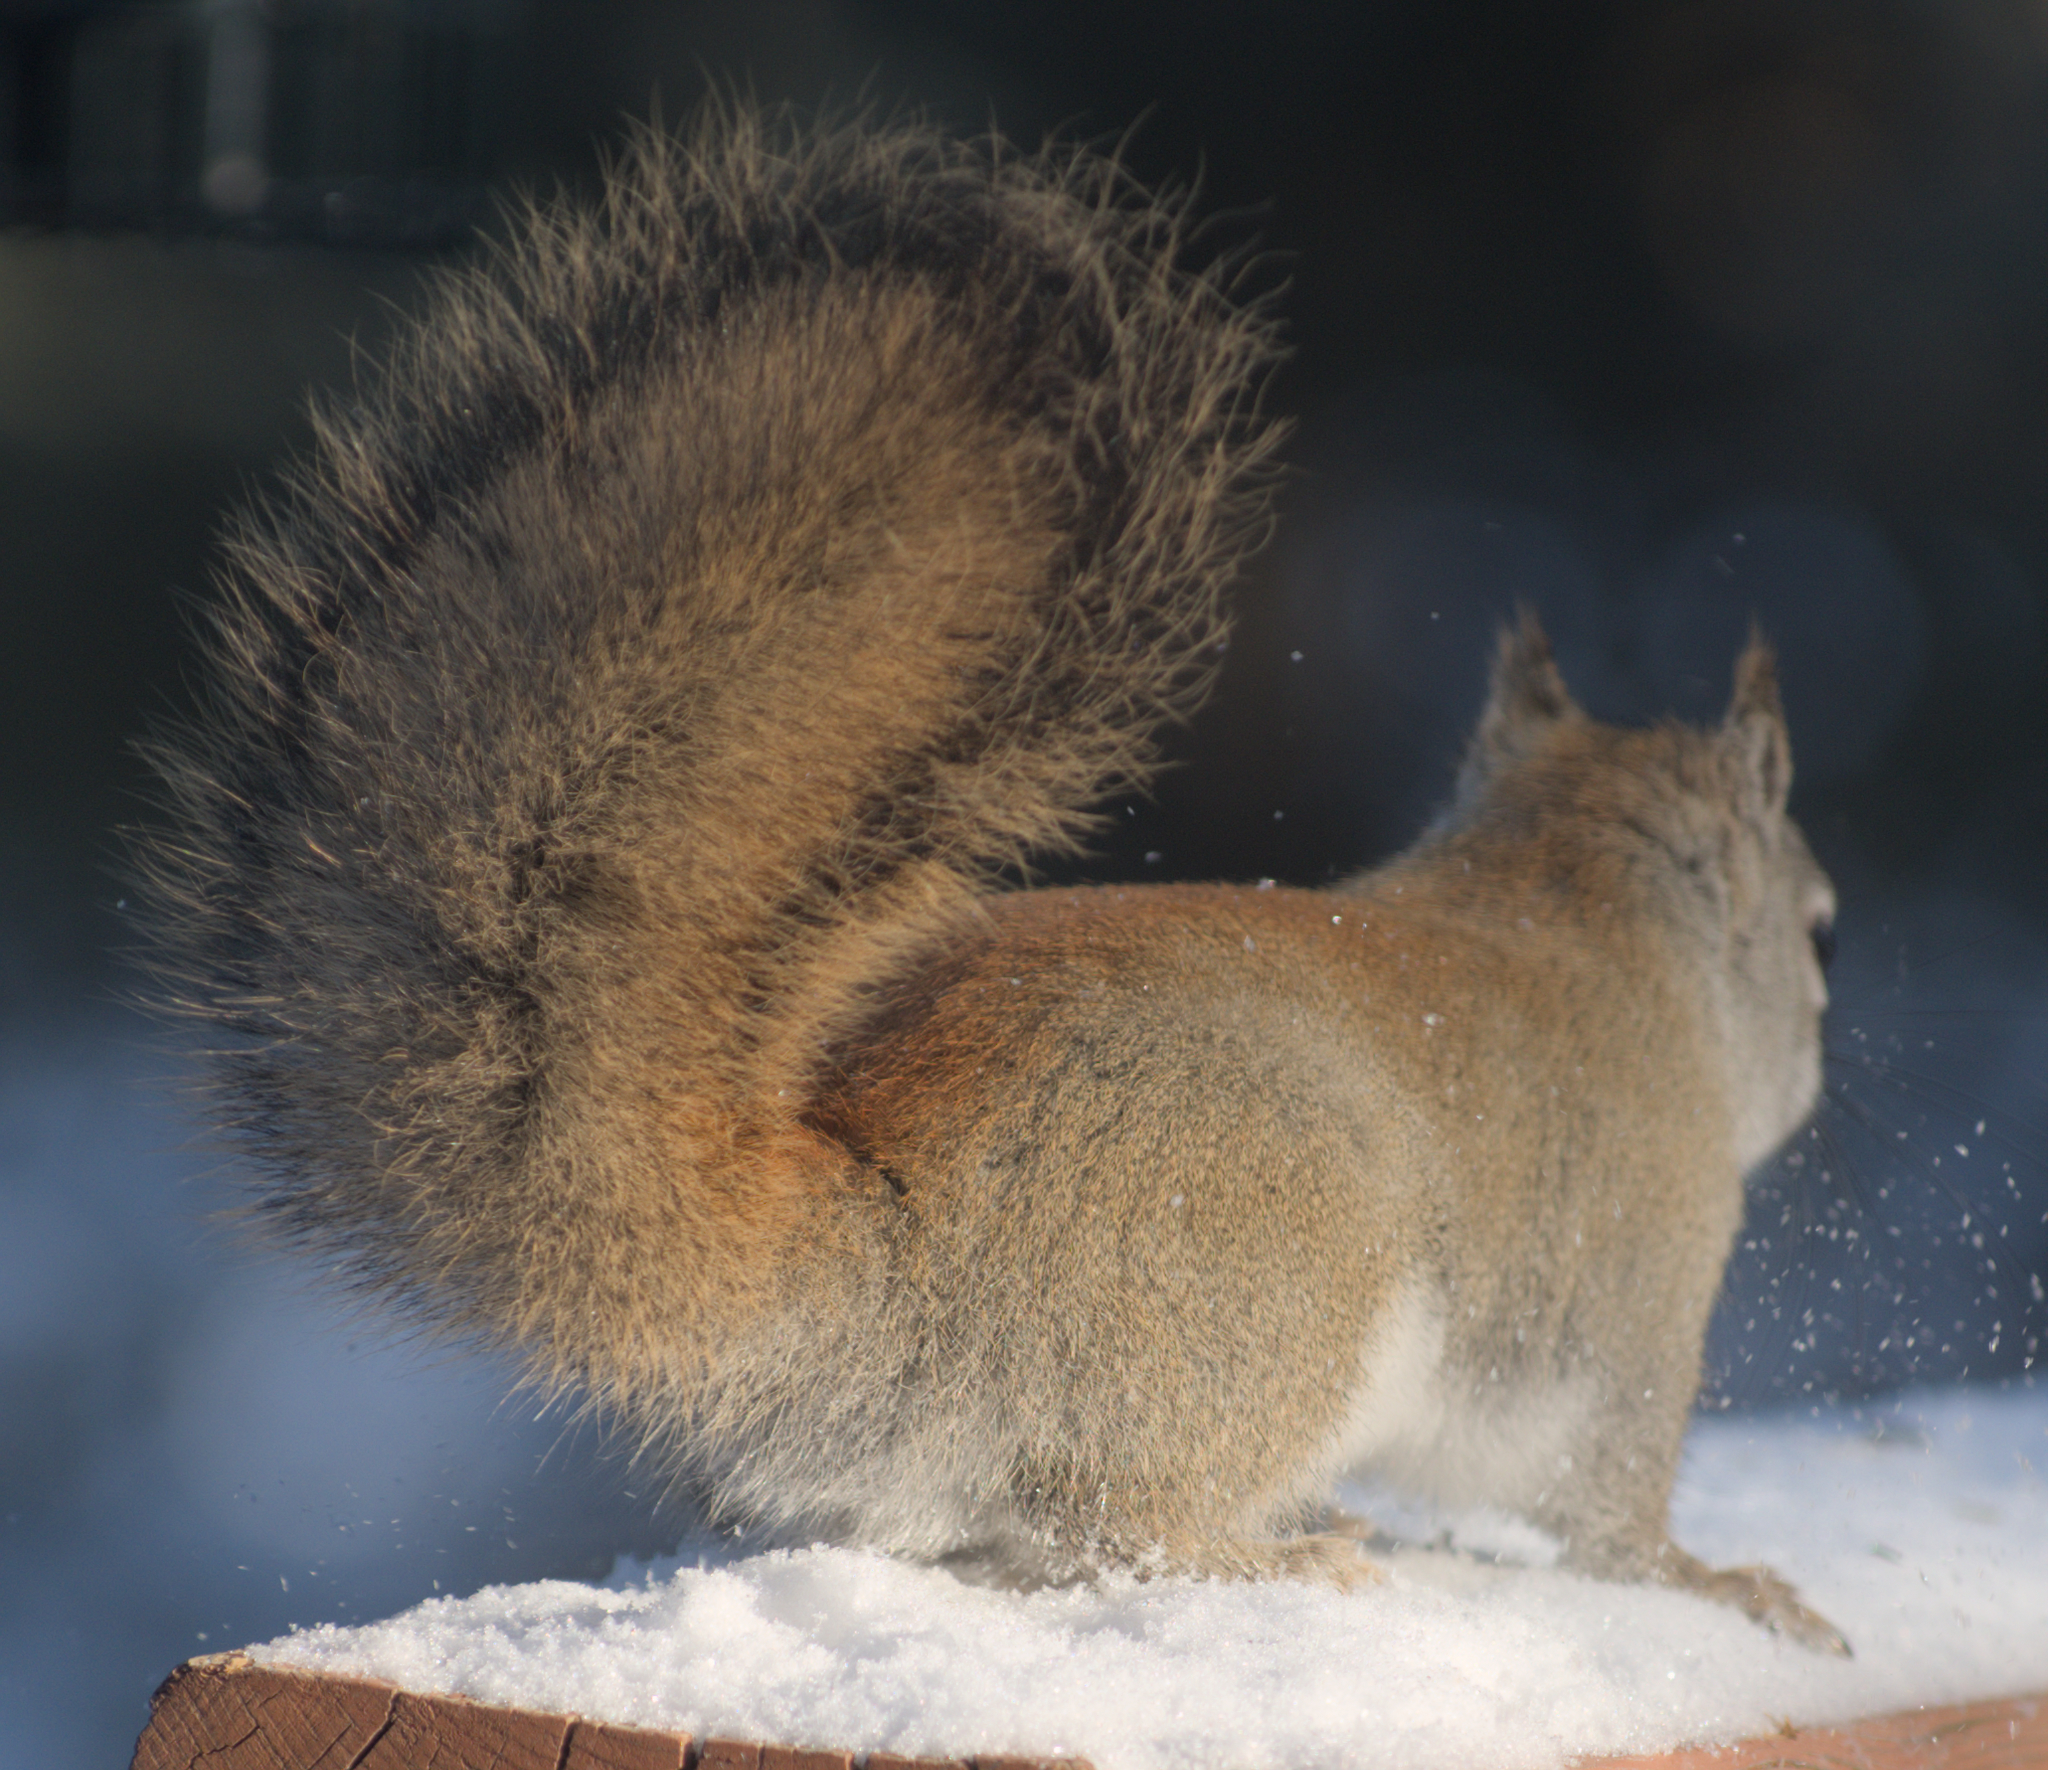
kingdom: Animalia
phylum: Chordata
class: Mammalia
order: Rodentia
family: Sciuridae
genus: Tamiasciurus
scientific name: Tamiasciurus hudsonicus
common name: Red squirrel
